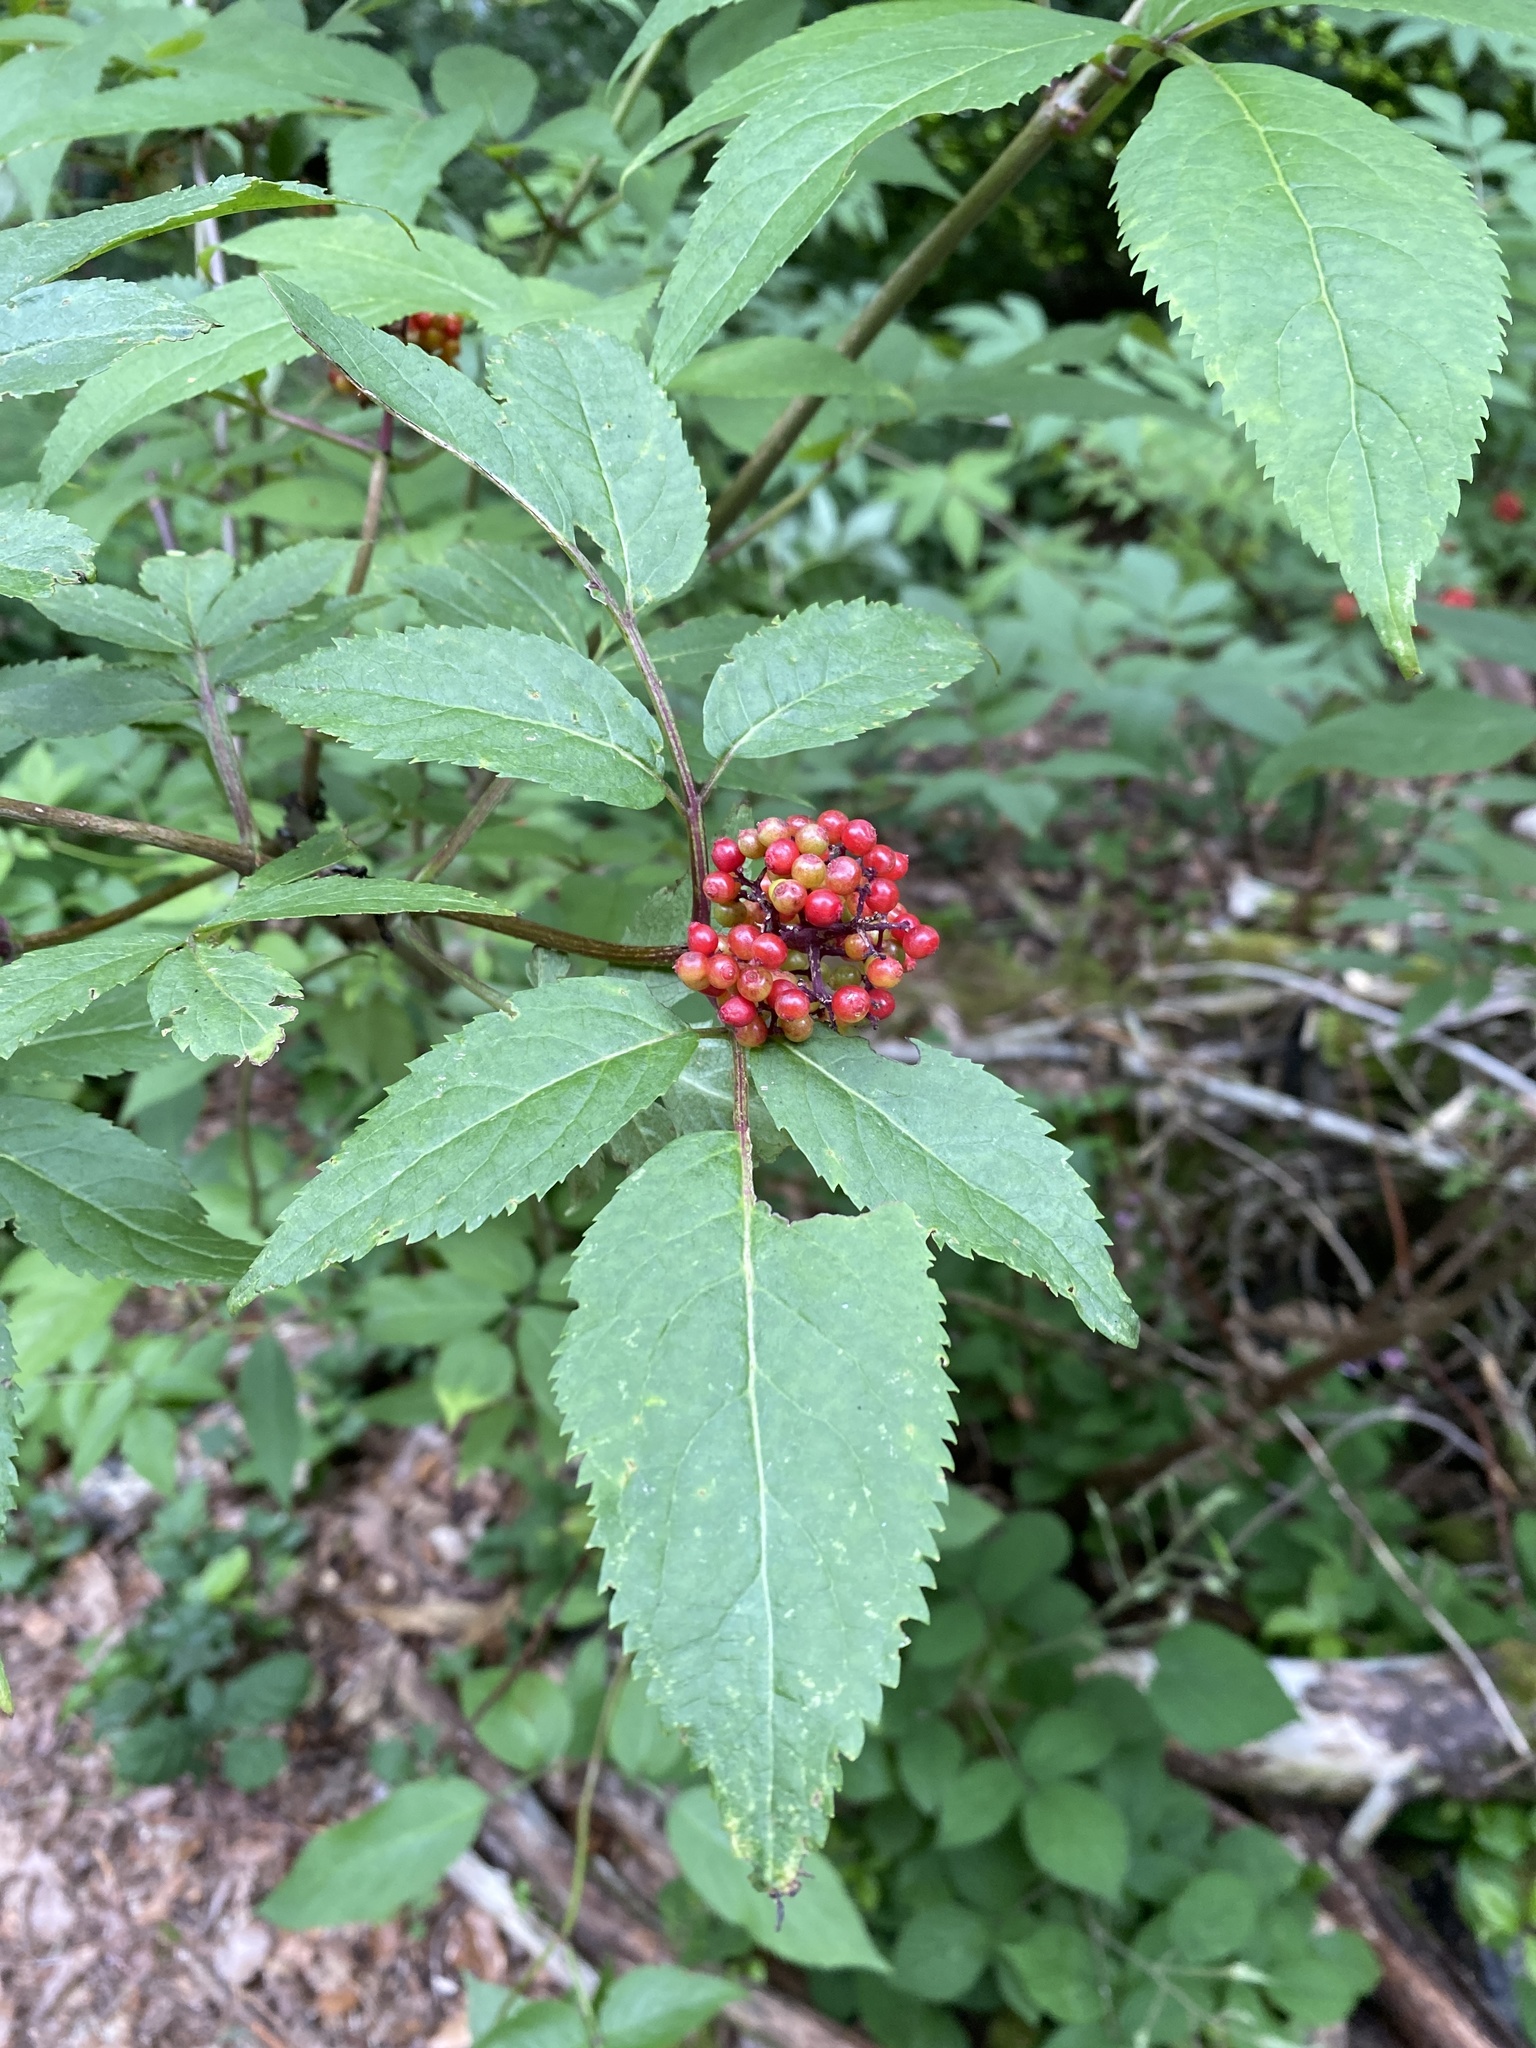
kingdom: Plantae
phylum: Tracheophyta
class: Magnoliopsida
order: Dipsacales
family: Viburnaceae
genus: Sambucus
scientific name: Sambucus racemosa
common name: Red-berried elder
